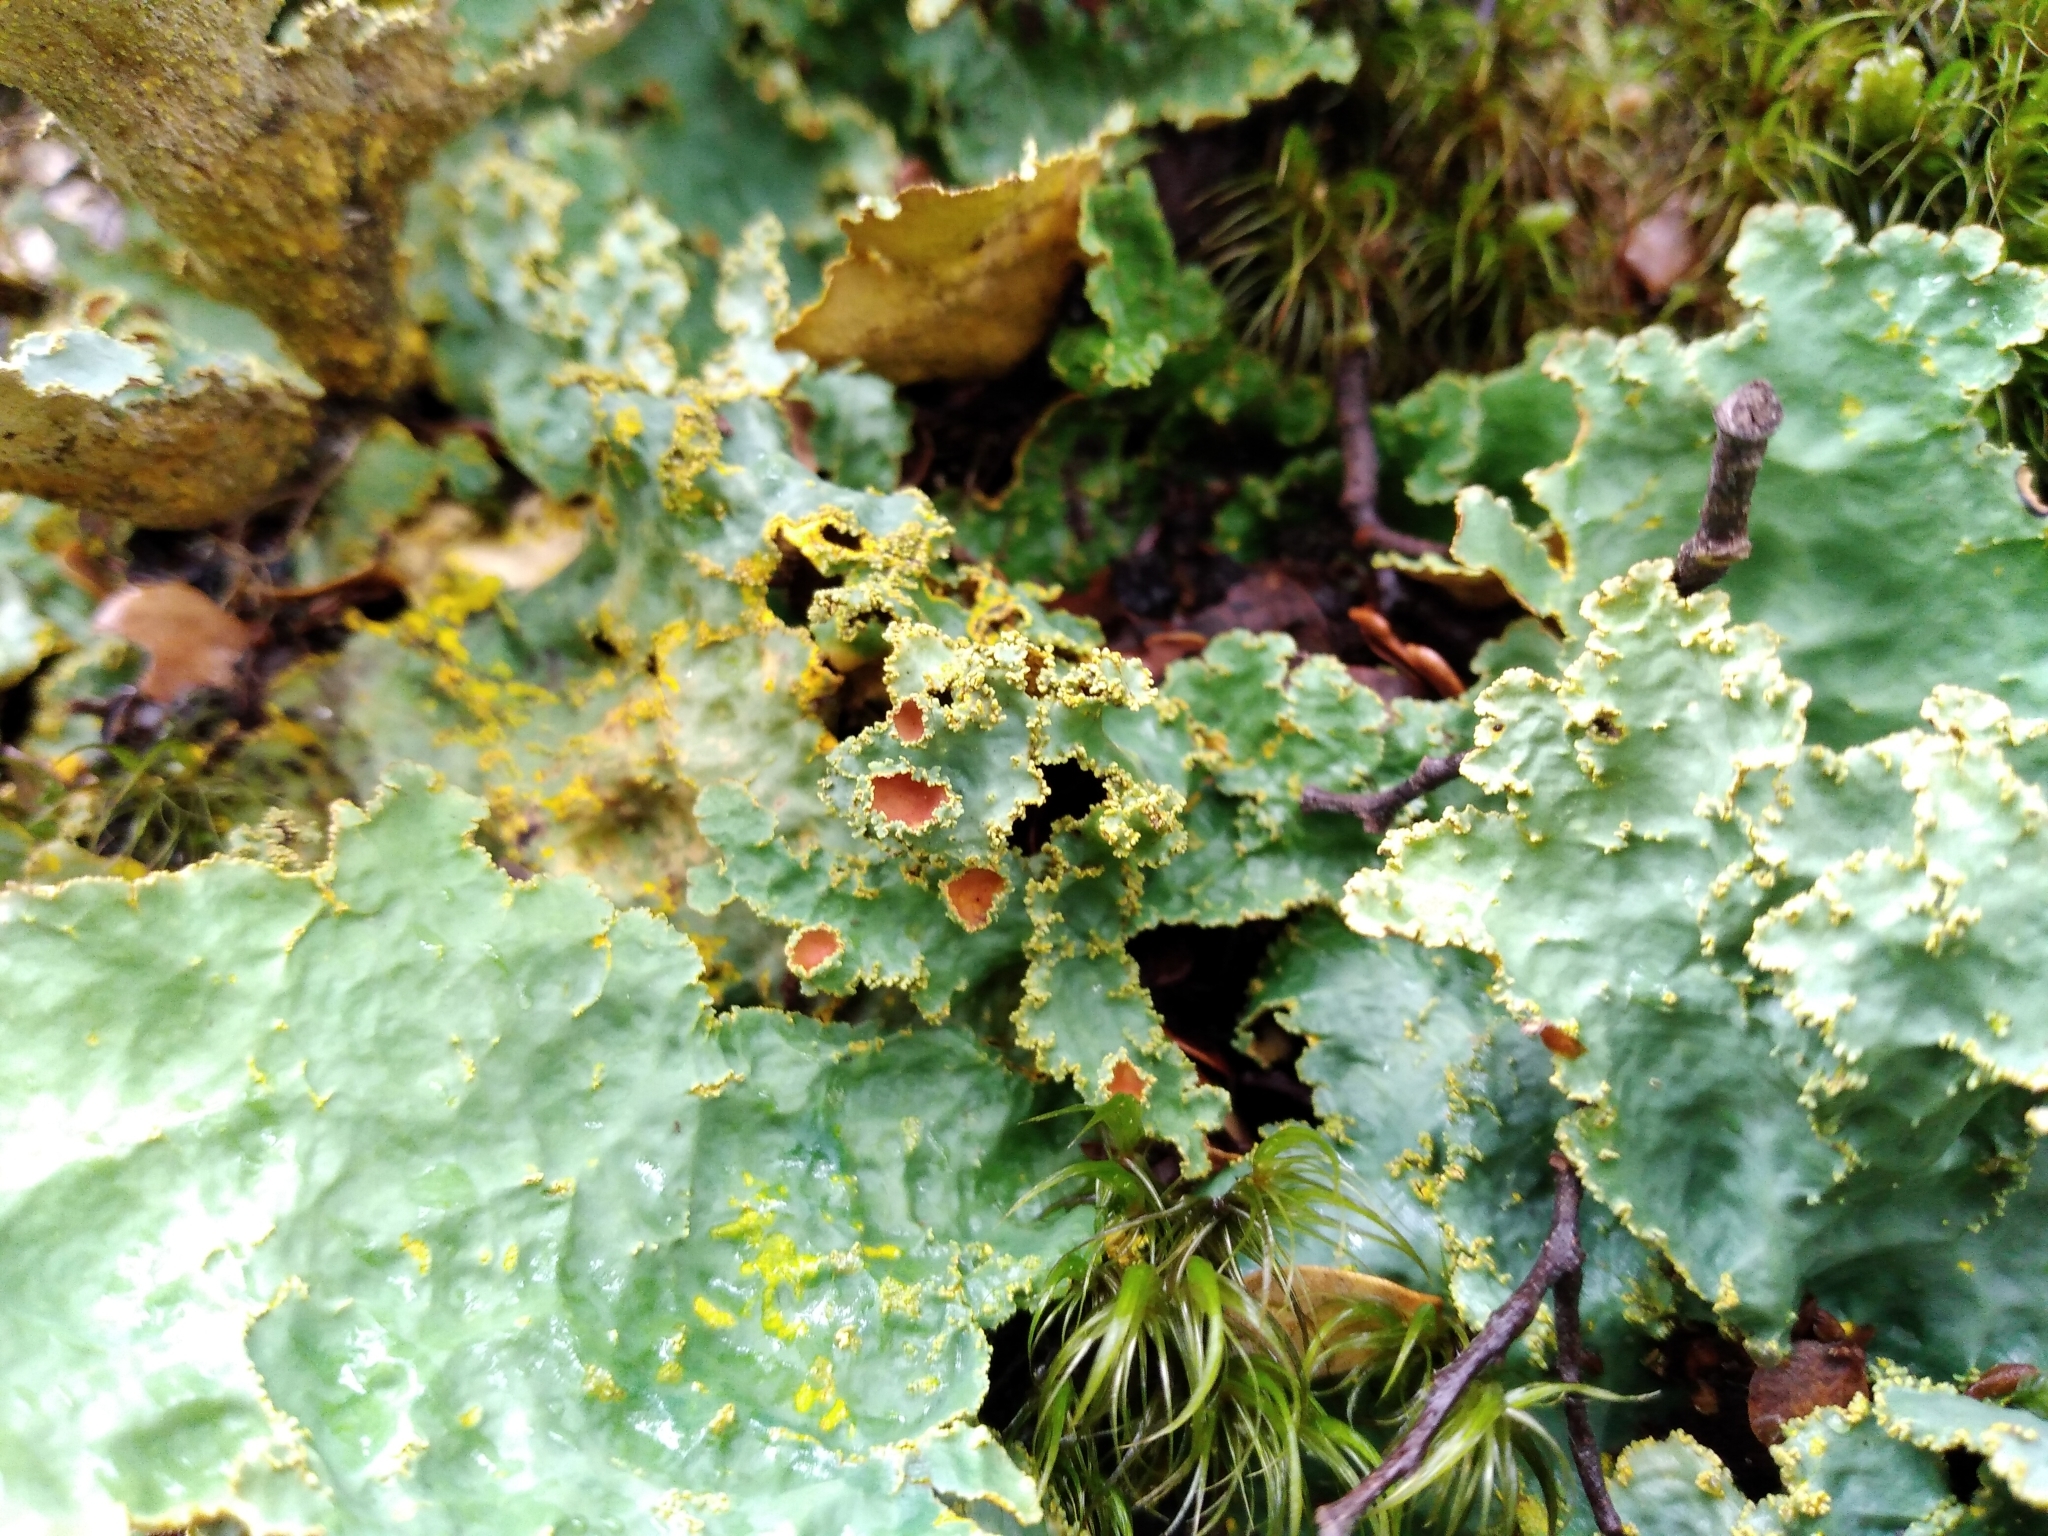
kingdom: Fungi
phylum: Ascomycota
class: Lecanoromycetes
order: Peltigerales
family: Lobariaceae
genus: Yarrumia
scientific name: Yarrumia colensoi
